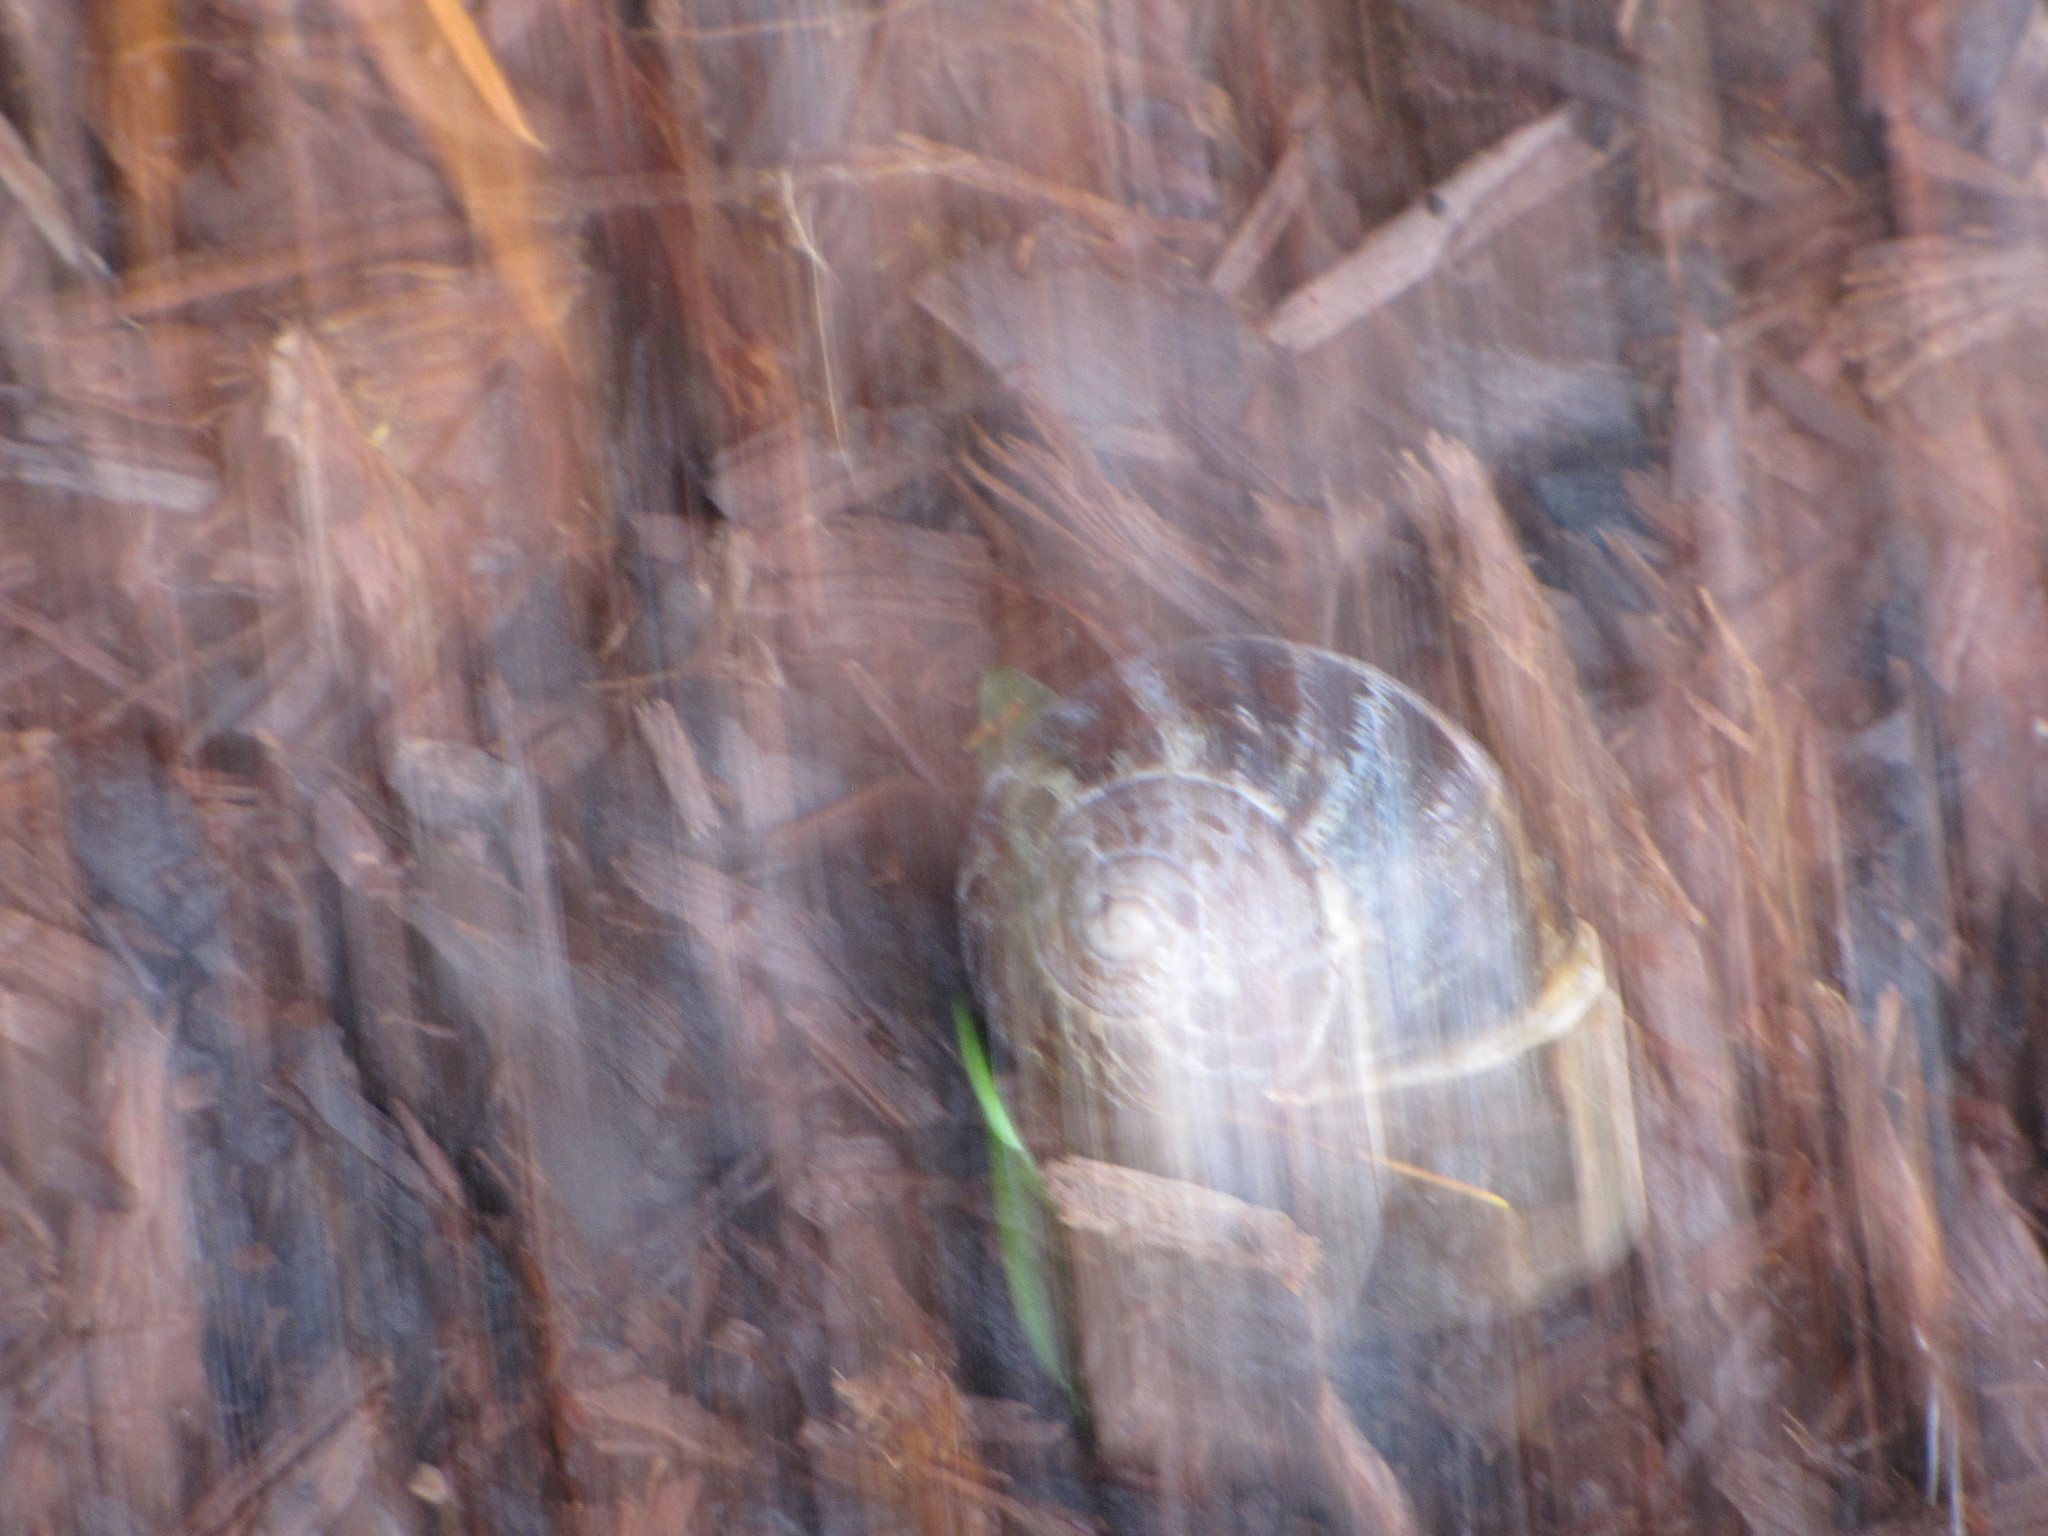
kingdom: Animalia
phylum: Mollusca
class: Gastropoda
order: Stylommatophora
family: Helicidae
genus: Cornu
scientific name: Cornu aspersum
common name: Brown garden snail
